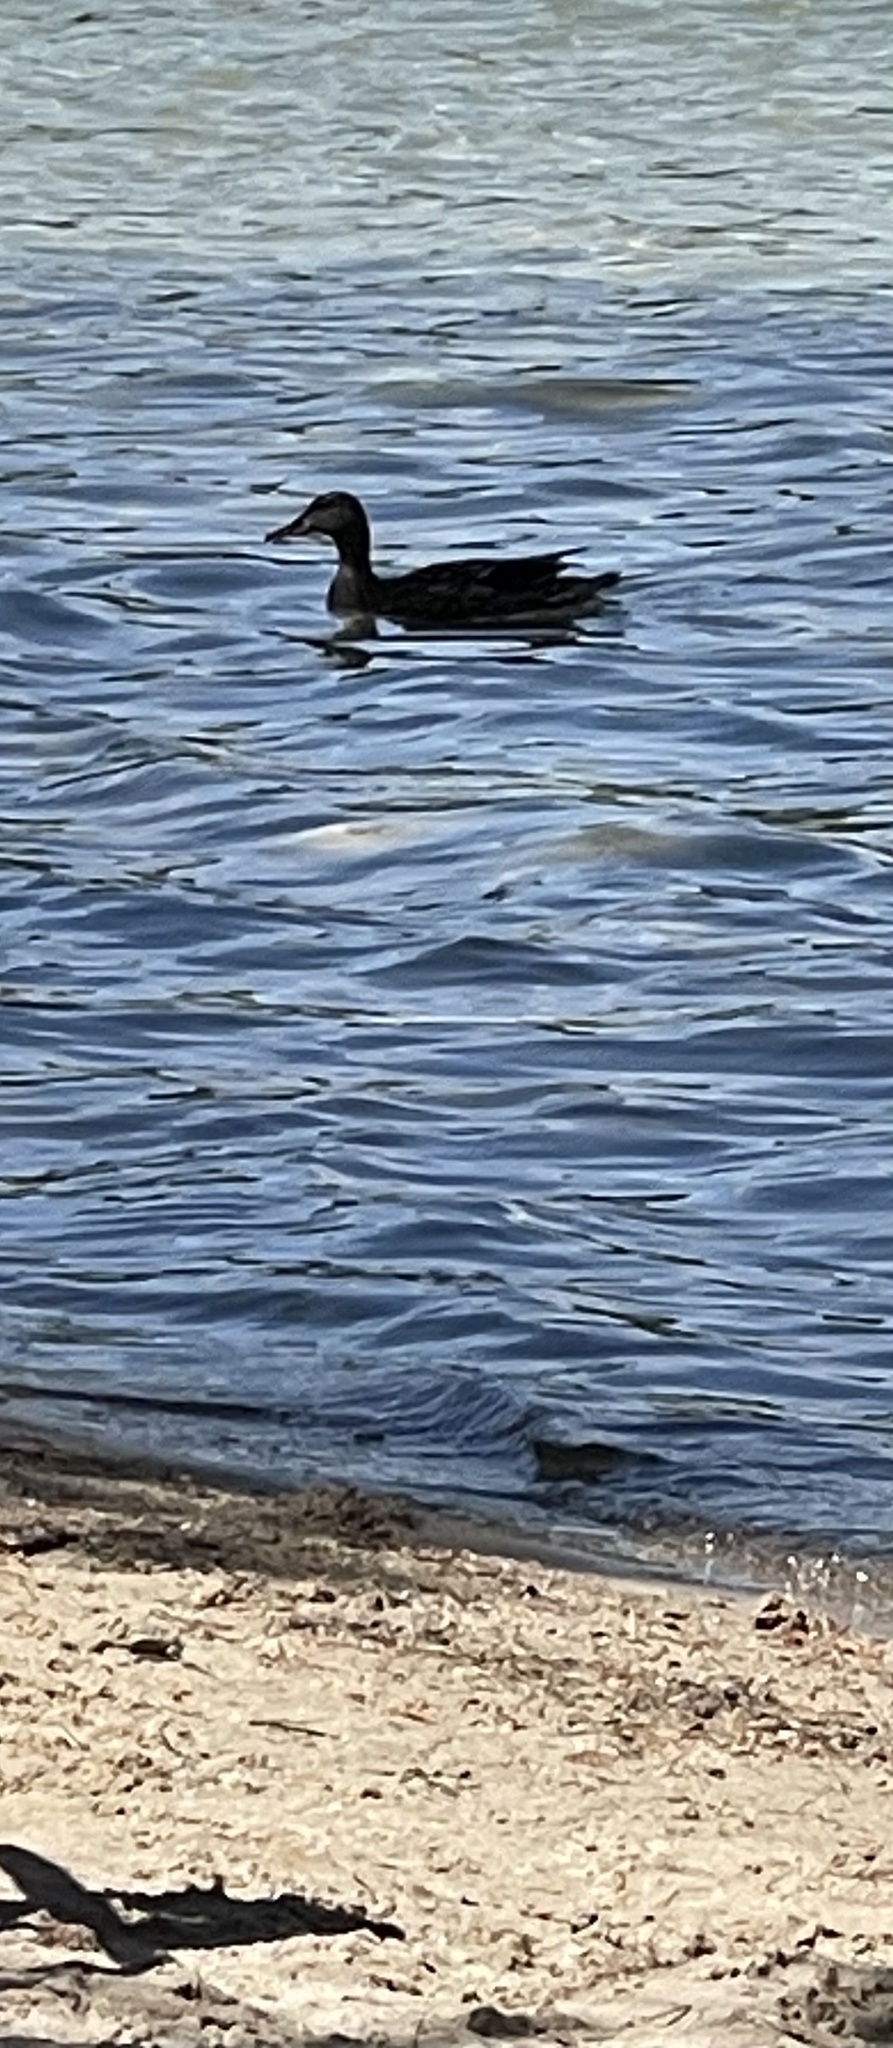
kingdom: Animalia
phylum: Chordata
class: Aves
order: Anseriformes
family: Anatidae
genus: Anas
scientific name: Anas platyrhynchos
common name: Mallard
